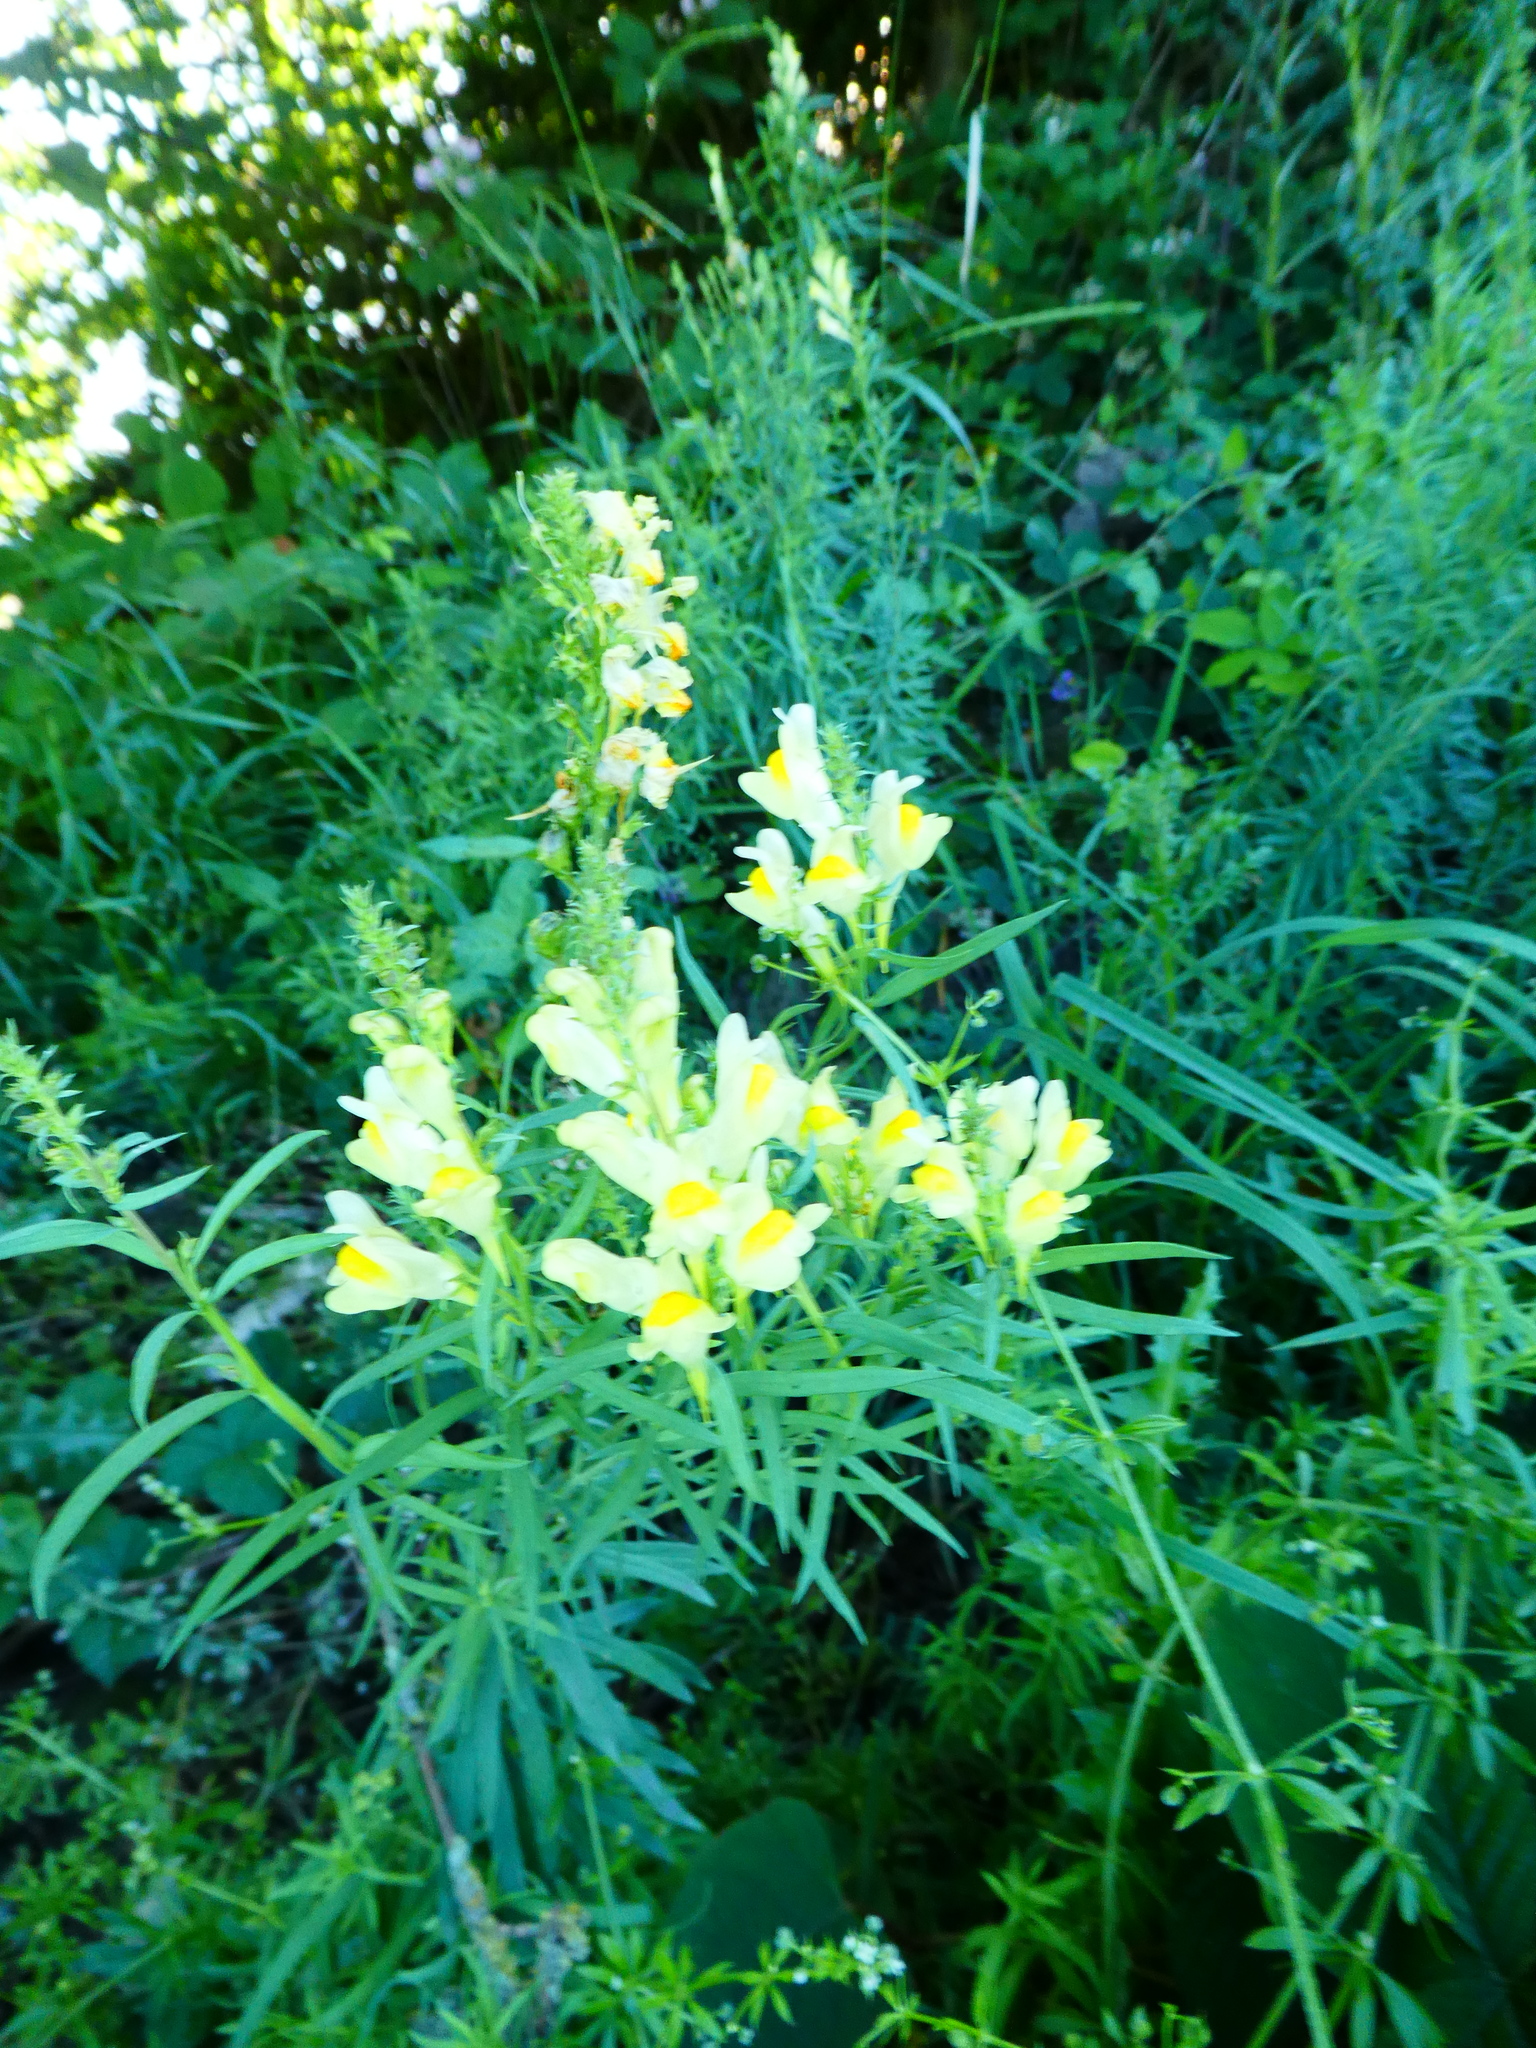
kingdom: Plantae
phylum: Tracheophyta
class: Magnoliopsida
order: Lamiales
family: Plantaginaceae
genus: Linaria
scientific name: Linaria vulgaris
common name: Butter and eggs
